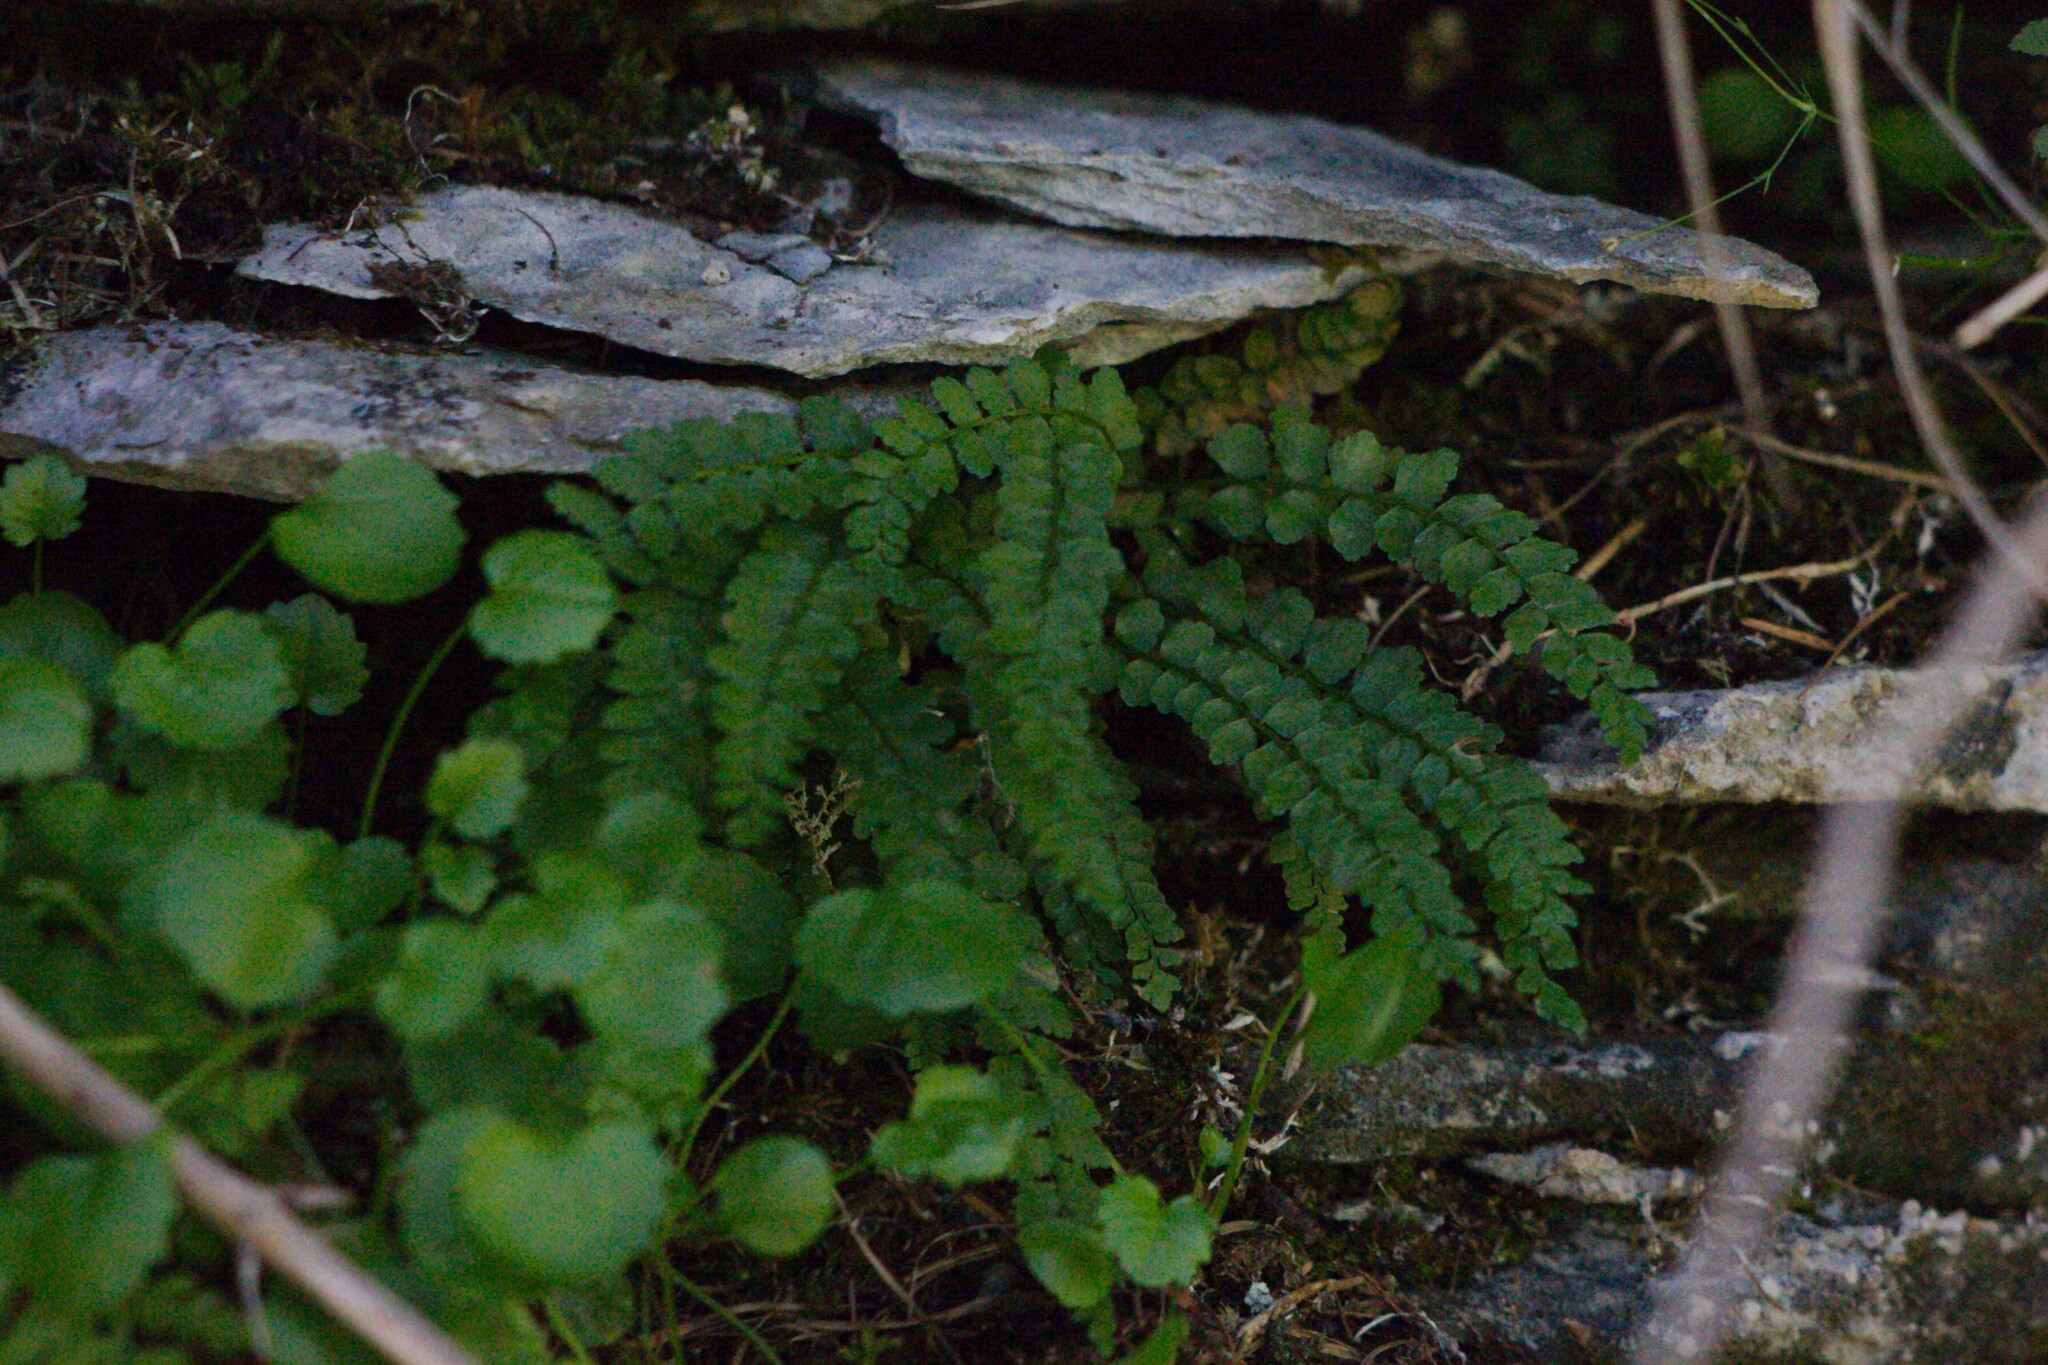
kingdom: Plantae
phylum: Tracheophyta
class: Polypodiopsida
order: Polypodiales
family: Aspleniaceae
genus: Asplenium
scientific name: Asplenium viride
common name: Green spleenwort
